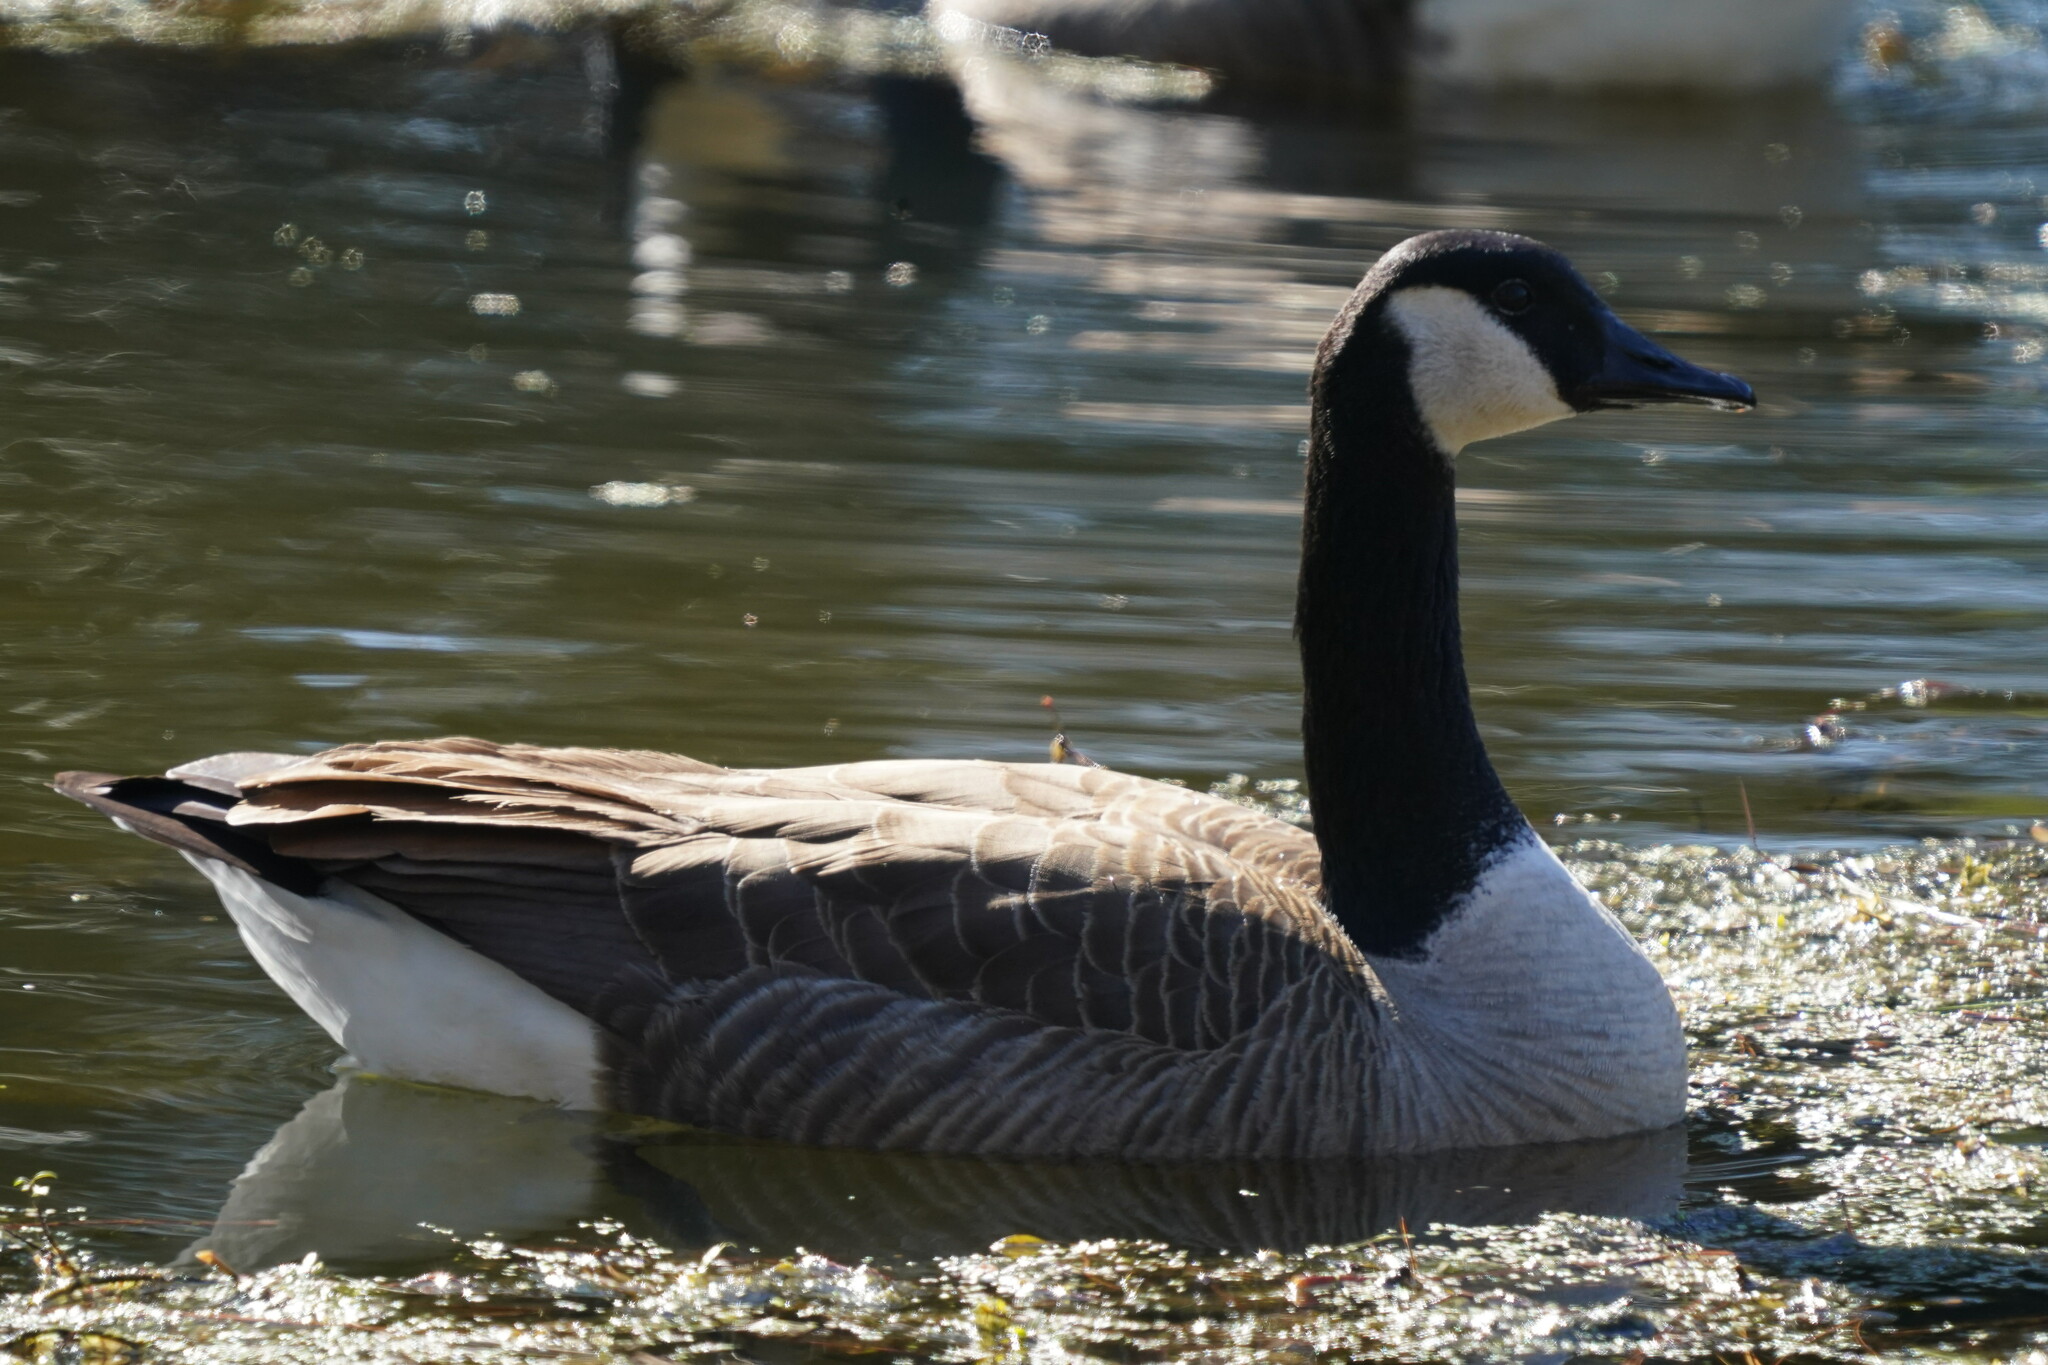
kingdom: Animalia
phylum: Chordata
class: Aves
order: Anseriformes
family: Anatidae
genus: Branta
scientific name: Branta canadensis
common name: Canada goose
